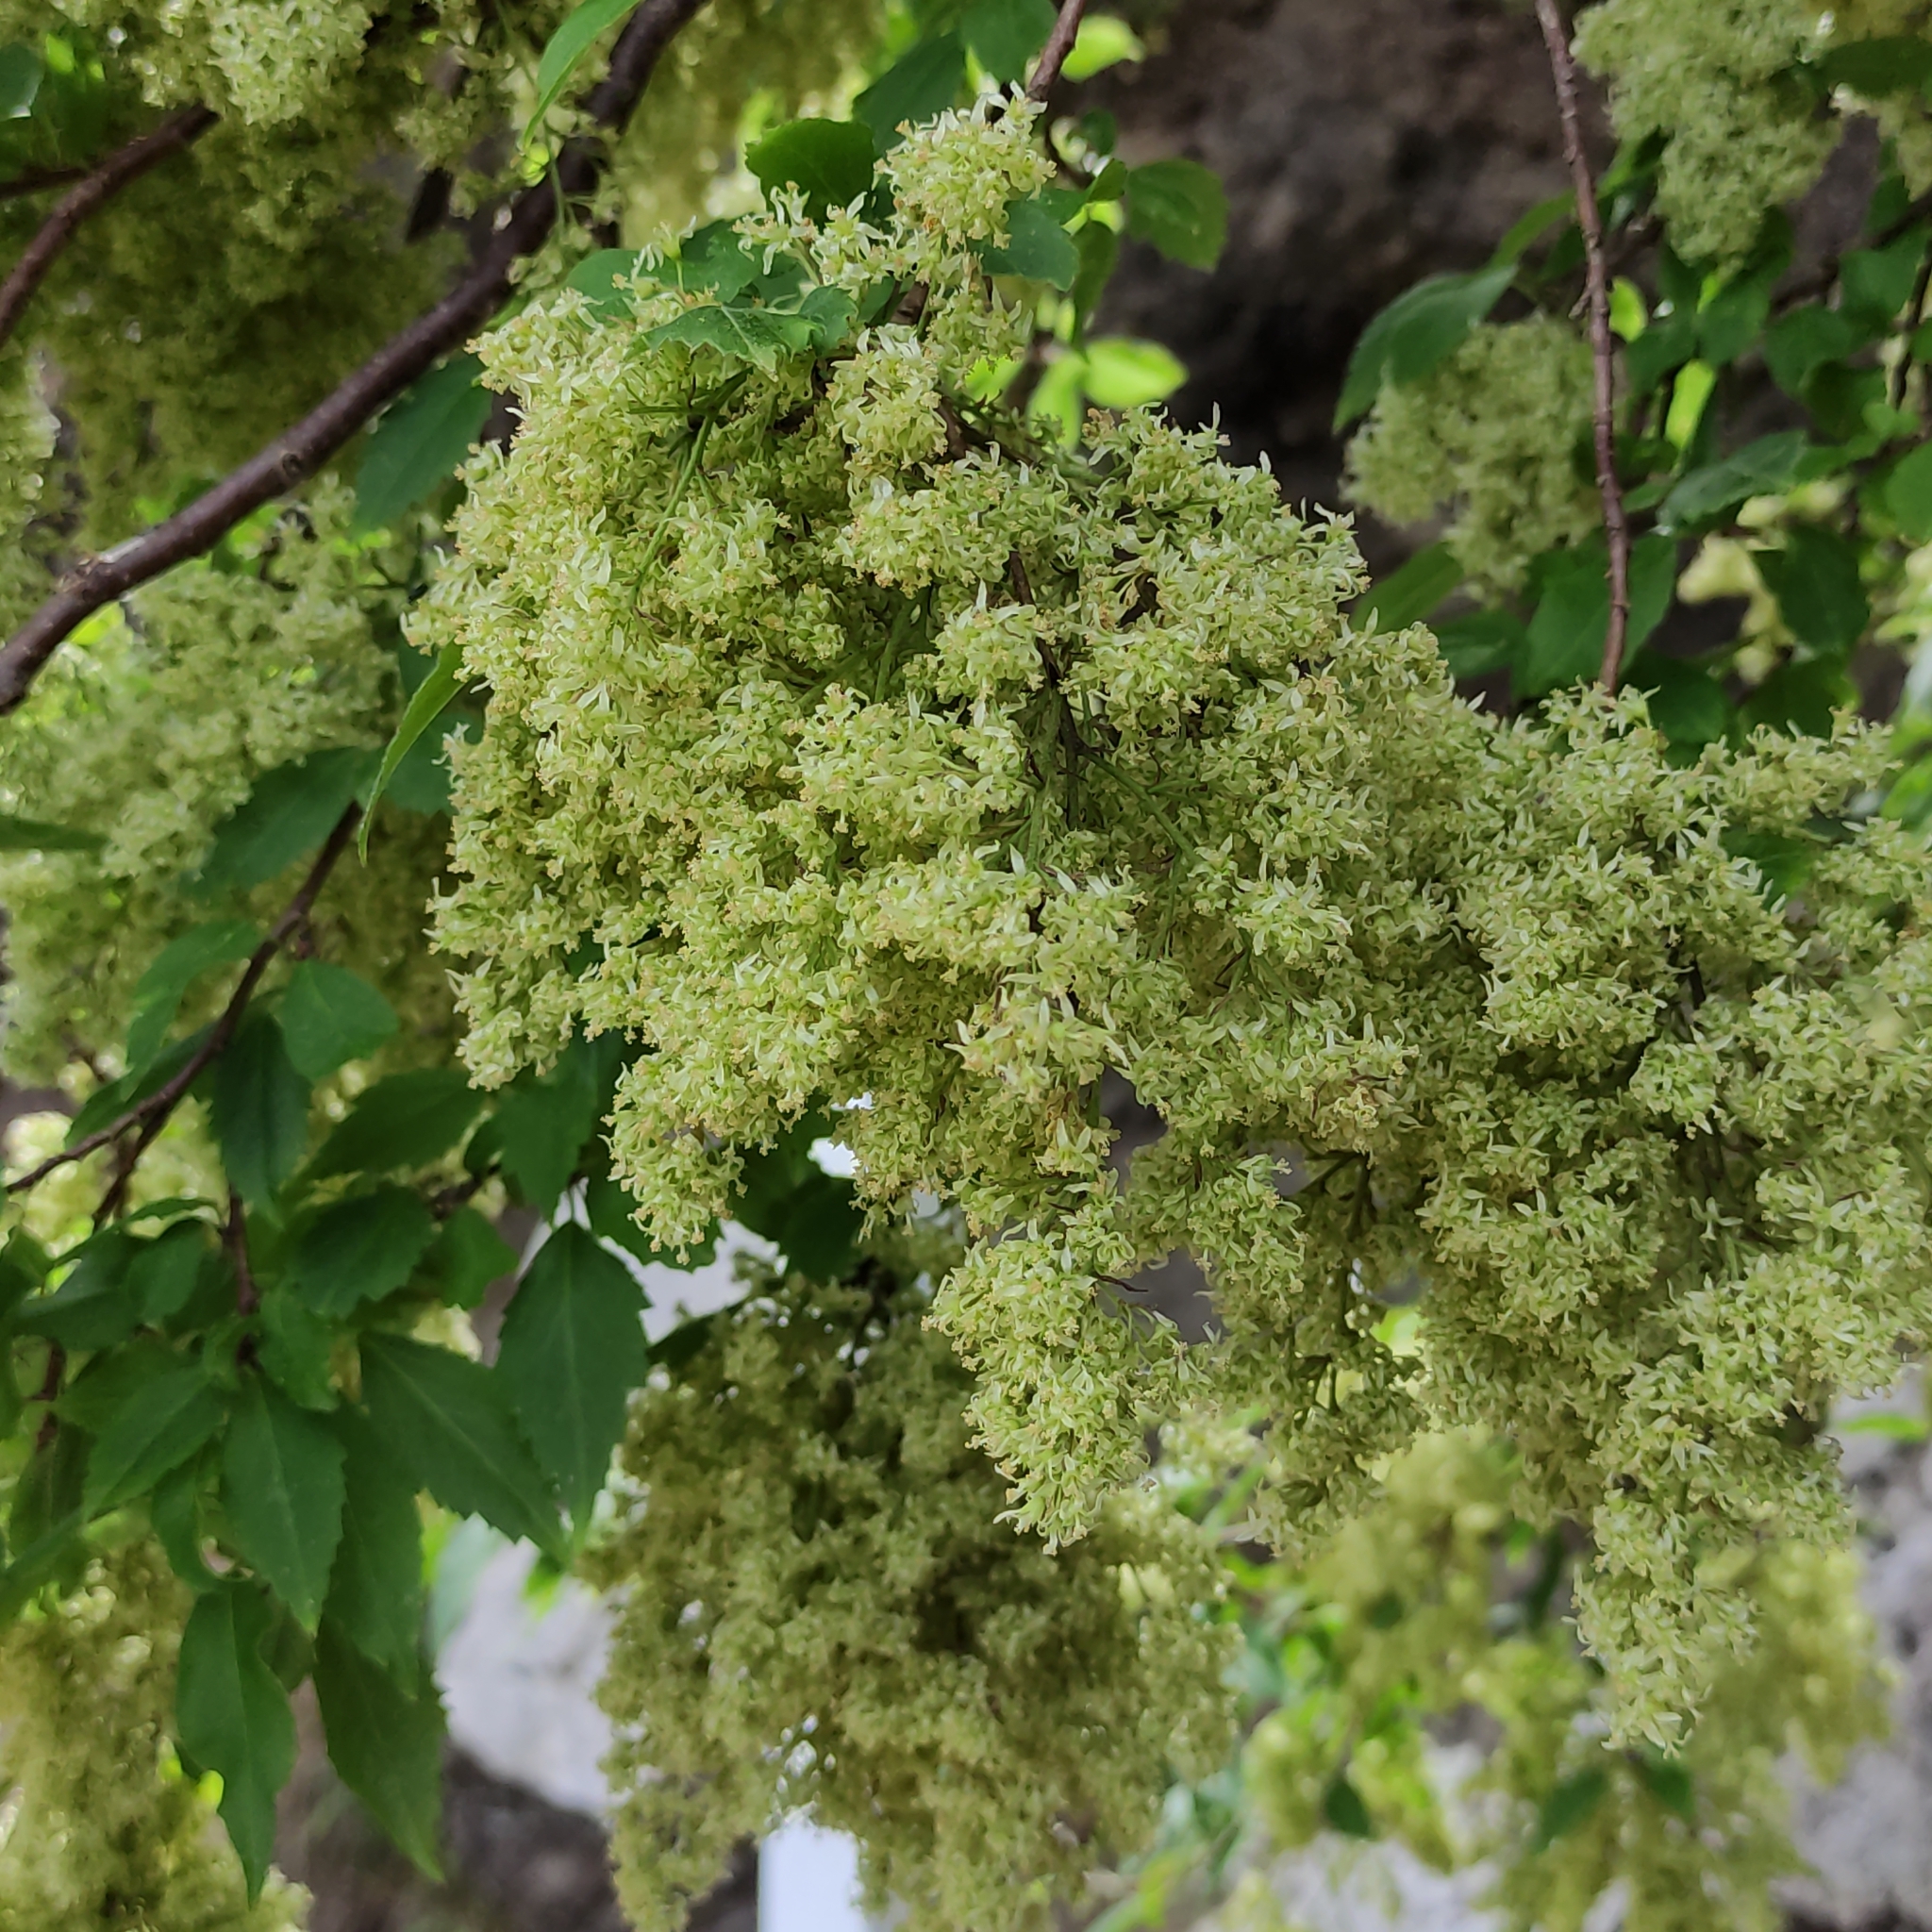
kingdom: Plantae
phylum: Tracheophyta
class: Magnoliopsida
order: Malvales
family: Malvaceae
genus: Plagianthus
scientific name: Plagianthus regius
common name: Manatu
